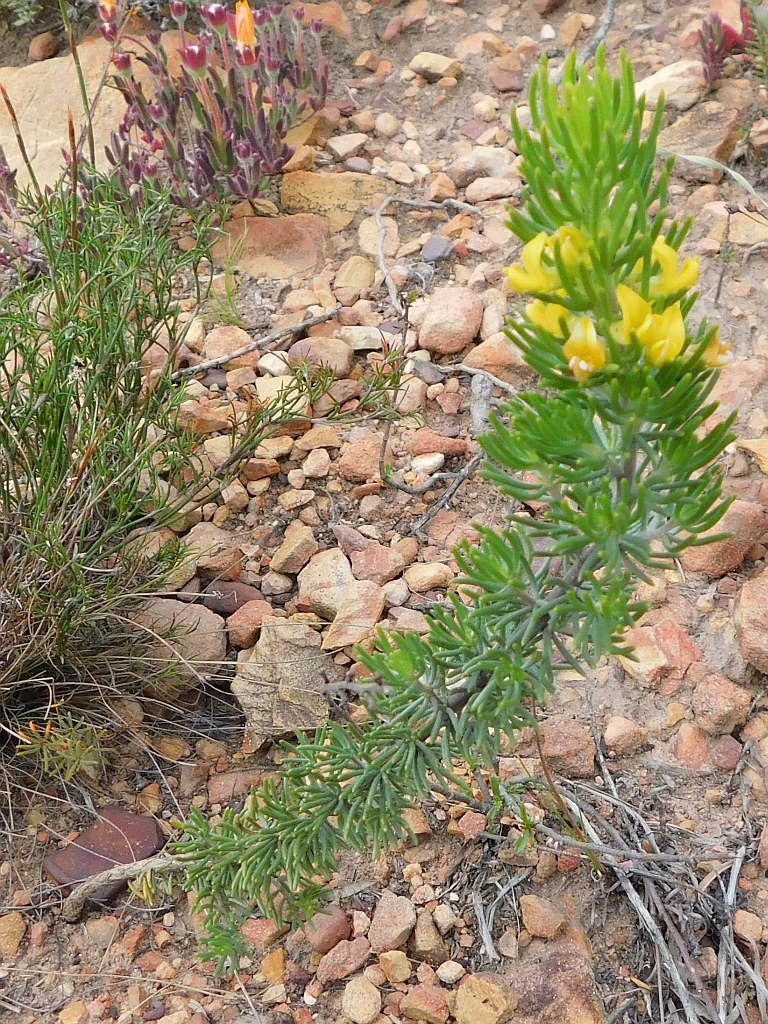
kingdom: Plantae
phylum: Tracheophyta
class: Magnoliopsida
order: Fabales
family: Fabaceae
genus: Aspalathus
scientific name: Aspalathus pinguis
